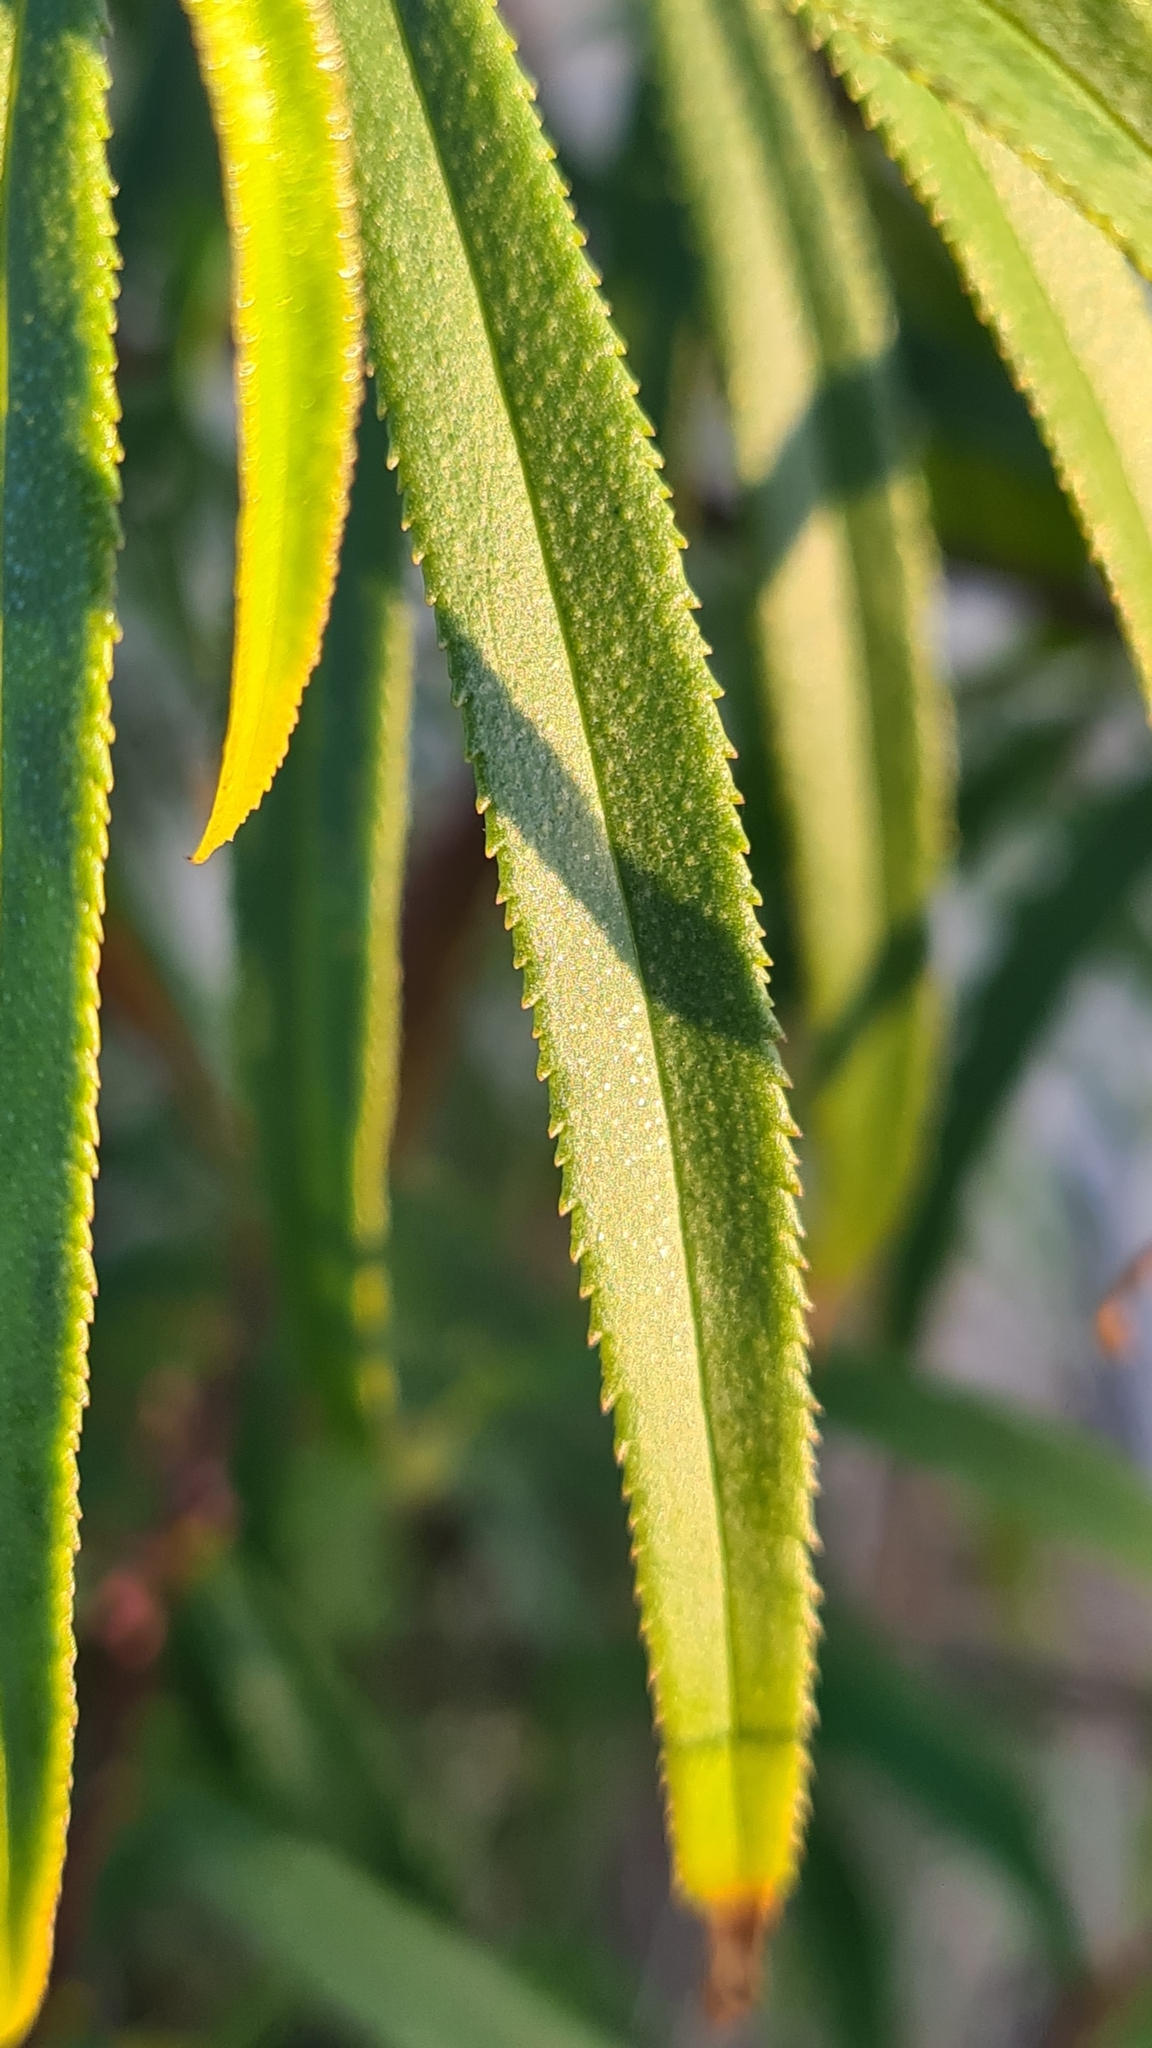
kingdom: Plantae
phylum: Tracheophyta
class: Magnoliopsida
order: Lamiales
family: Scrophulariaceae
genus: Myoporum
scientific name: Myoporum bateae
